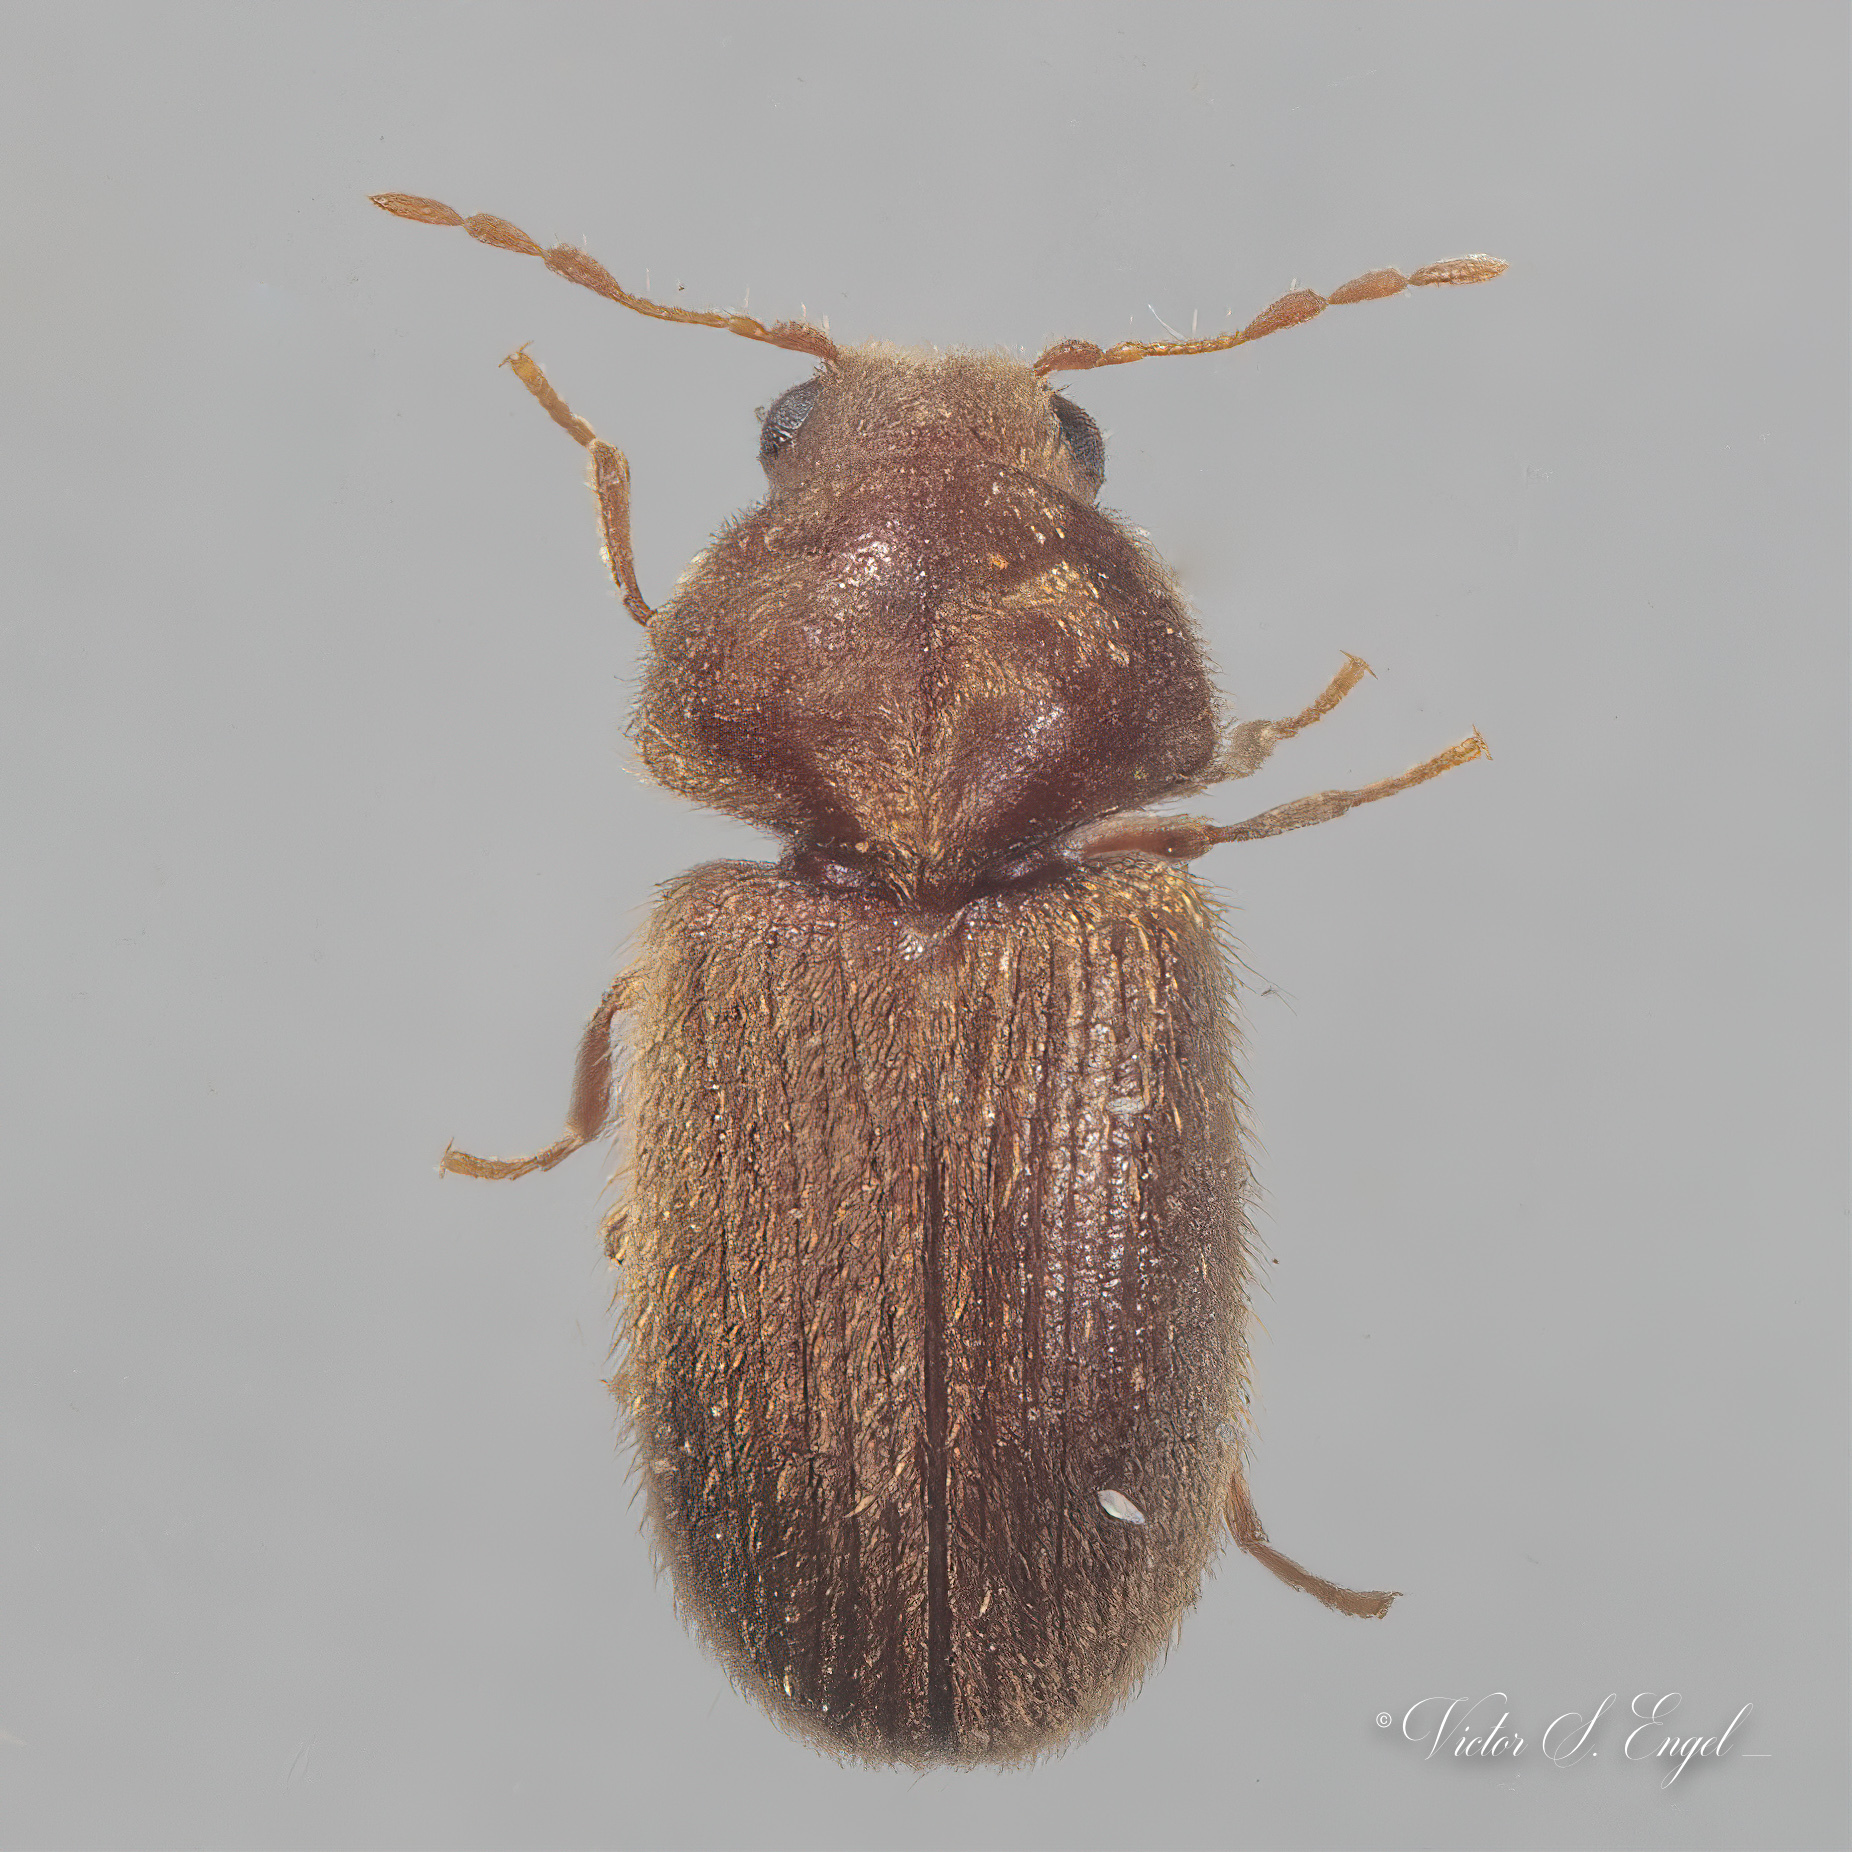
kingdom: Animalia
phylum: Arthropoda
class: Insecta
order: Coleoptera
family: Anobiidae
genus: Stegobium
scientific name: Stegobium paniceum
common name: Drugstore beetle
